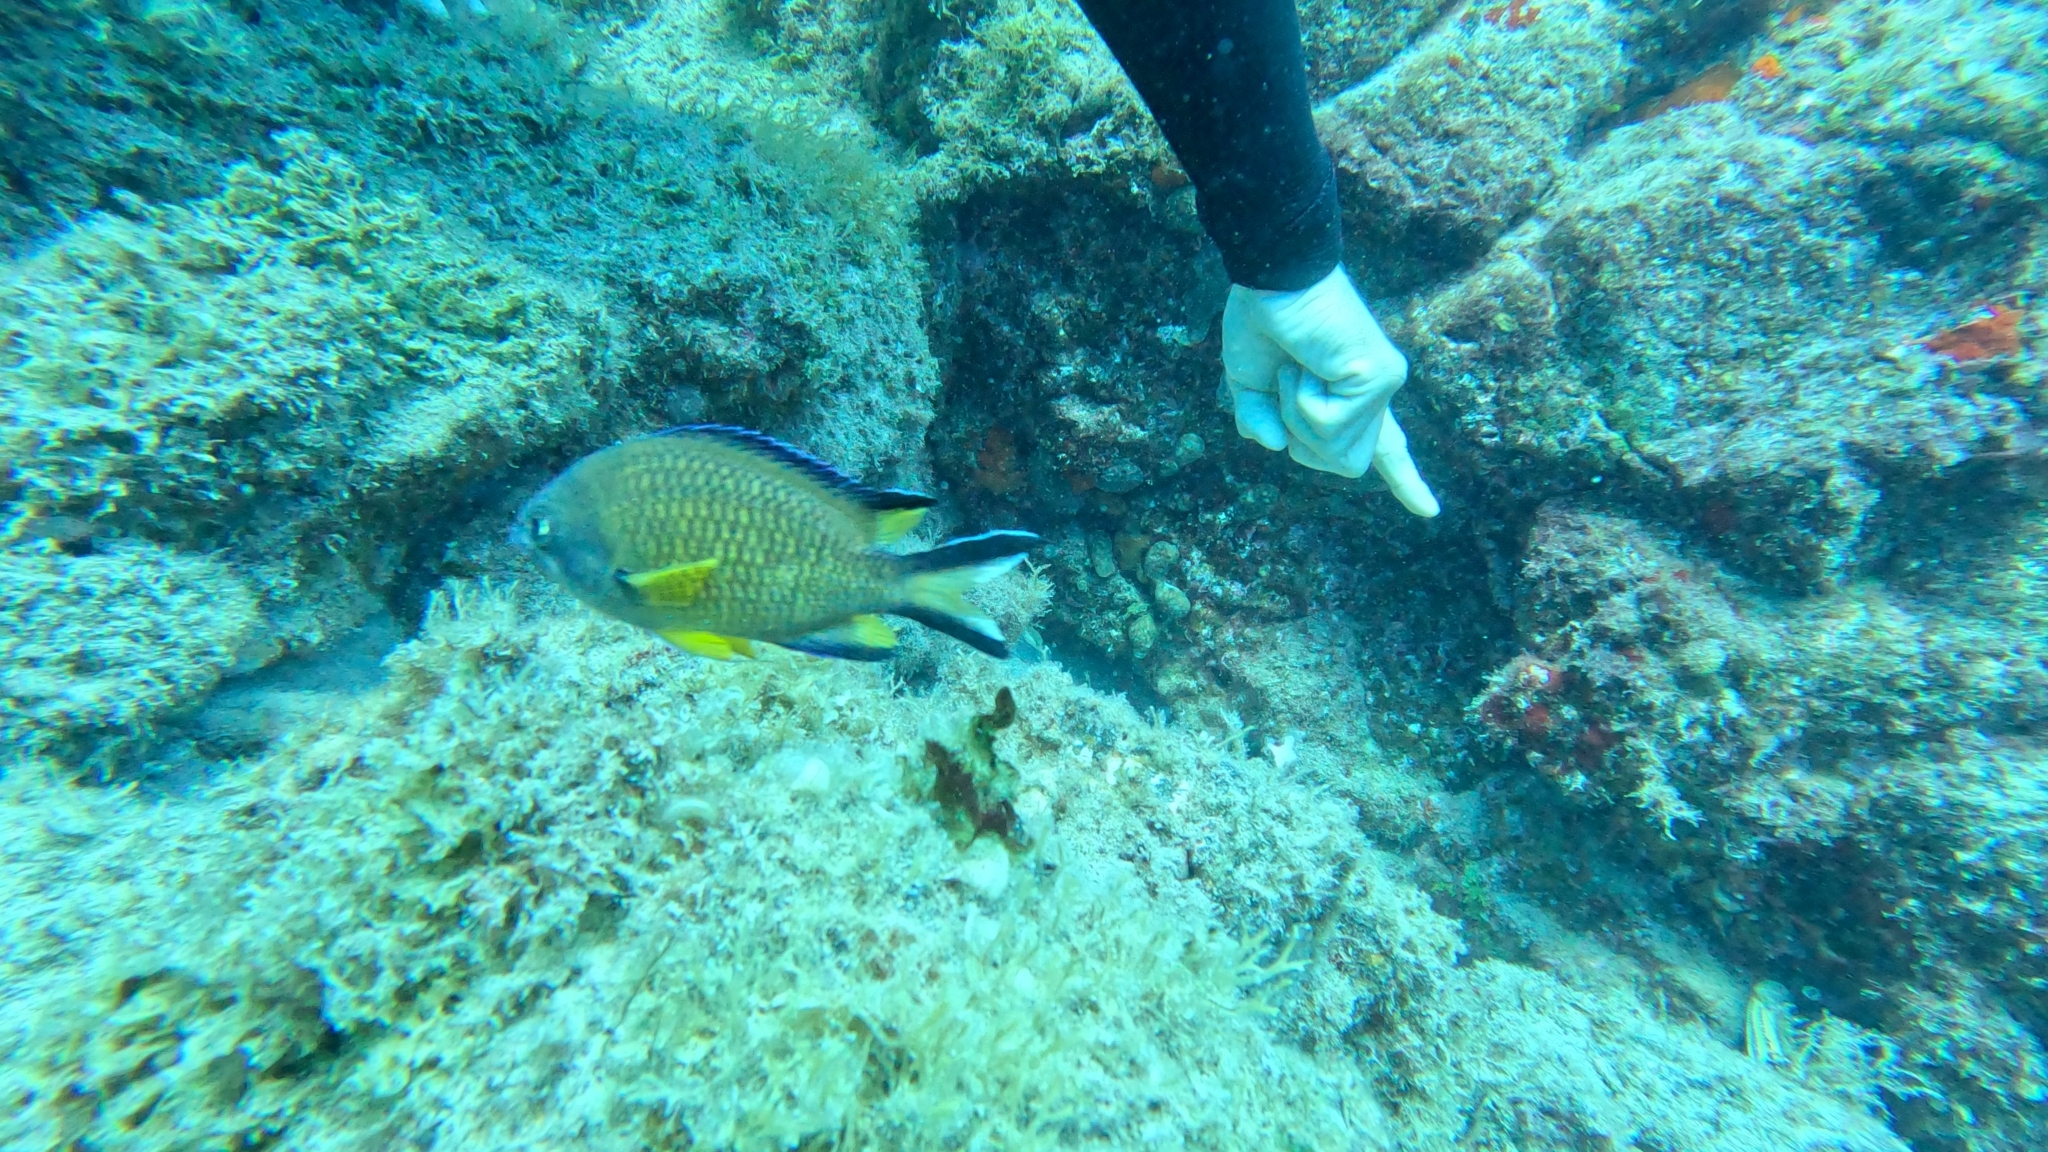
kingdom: Animalia
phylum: Chordata
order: Perciformes
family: Pomacentridae
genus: Chromis
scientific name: Chromis limbata
